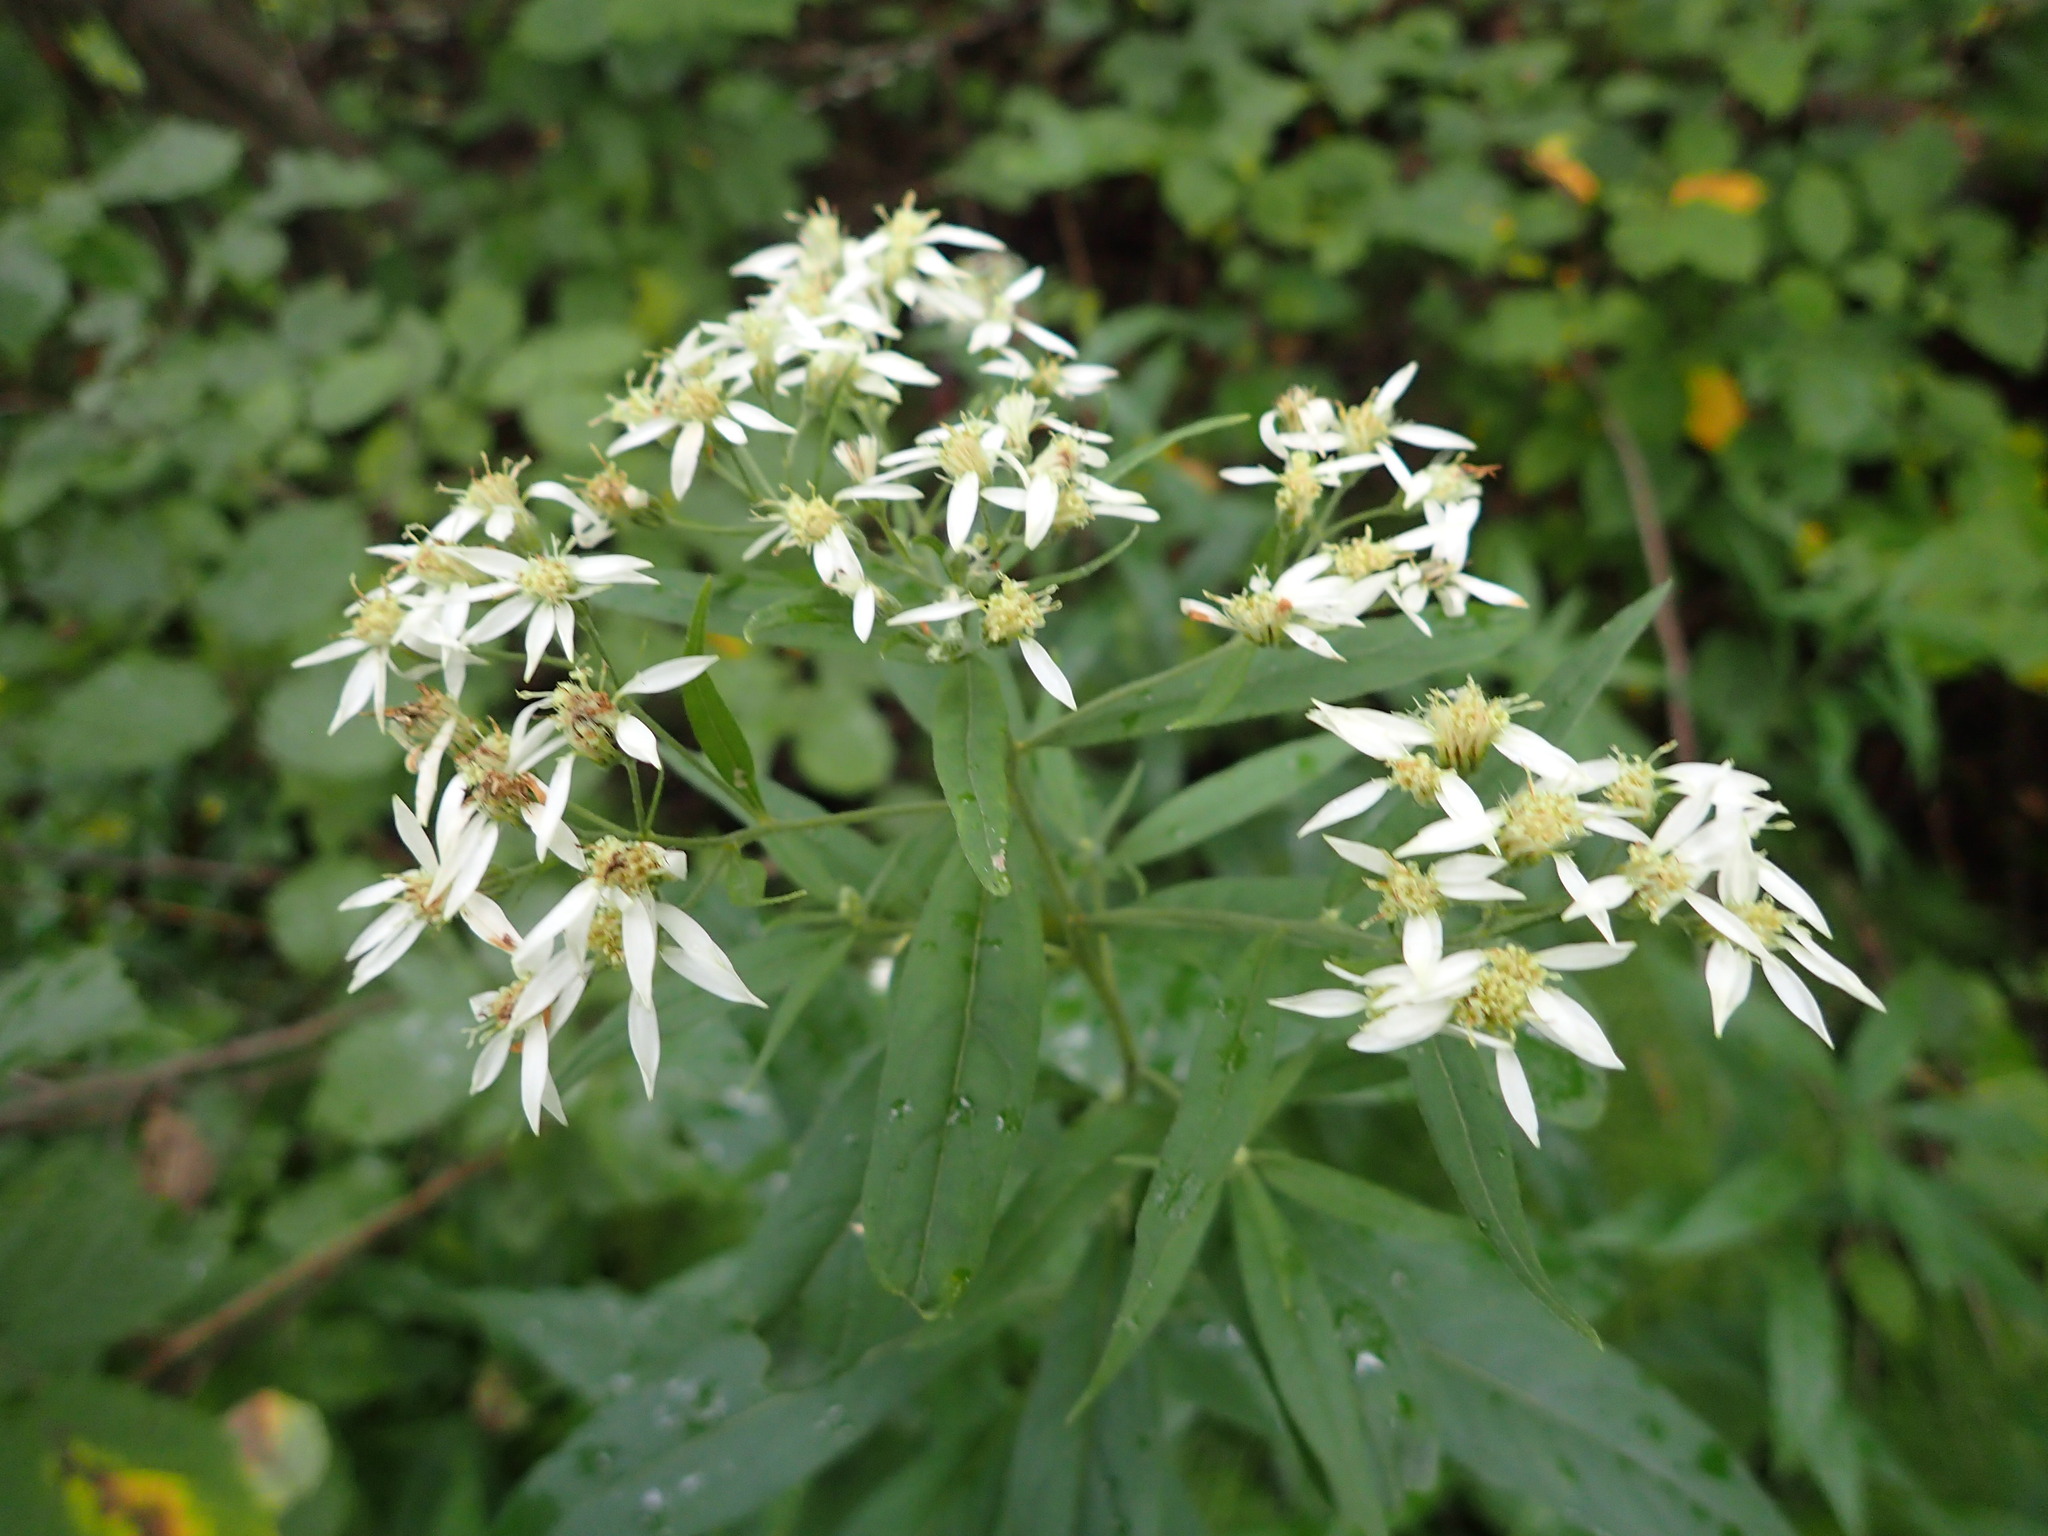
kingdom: Plantae
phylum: Tracheophyta
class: Magnoliopsida
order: Asterales
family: Asteraceae
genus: Doellingeria
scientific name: Doellingeria umbellata
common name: Flat-top white aster
